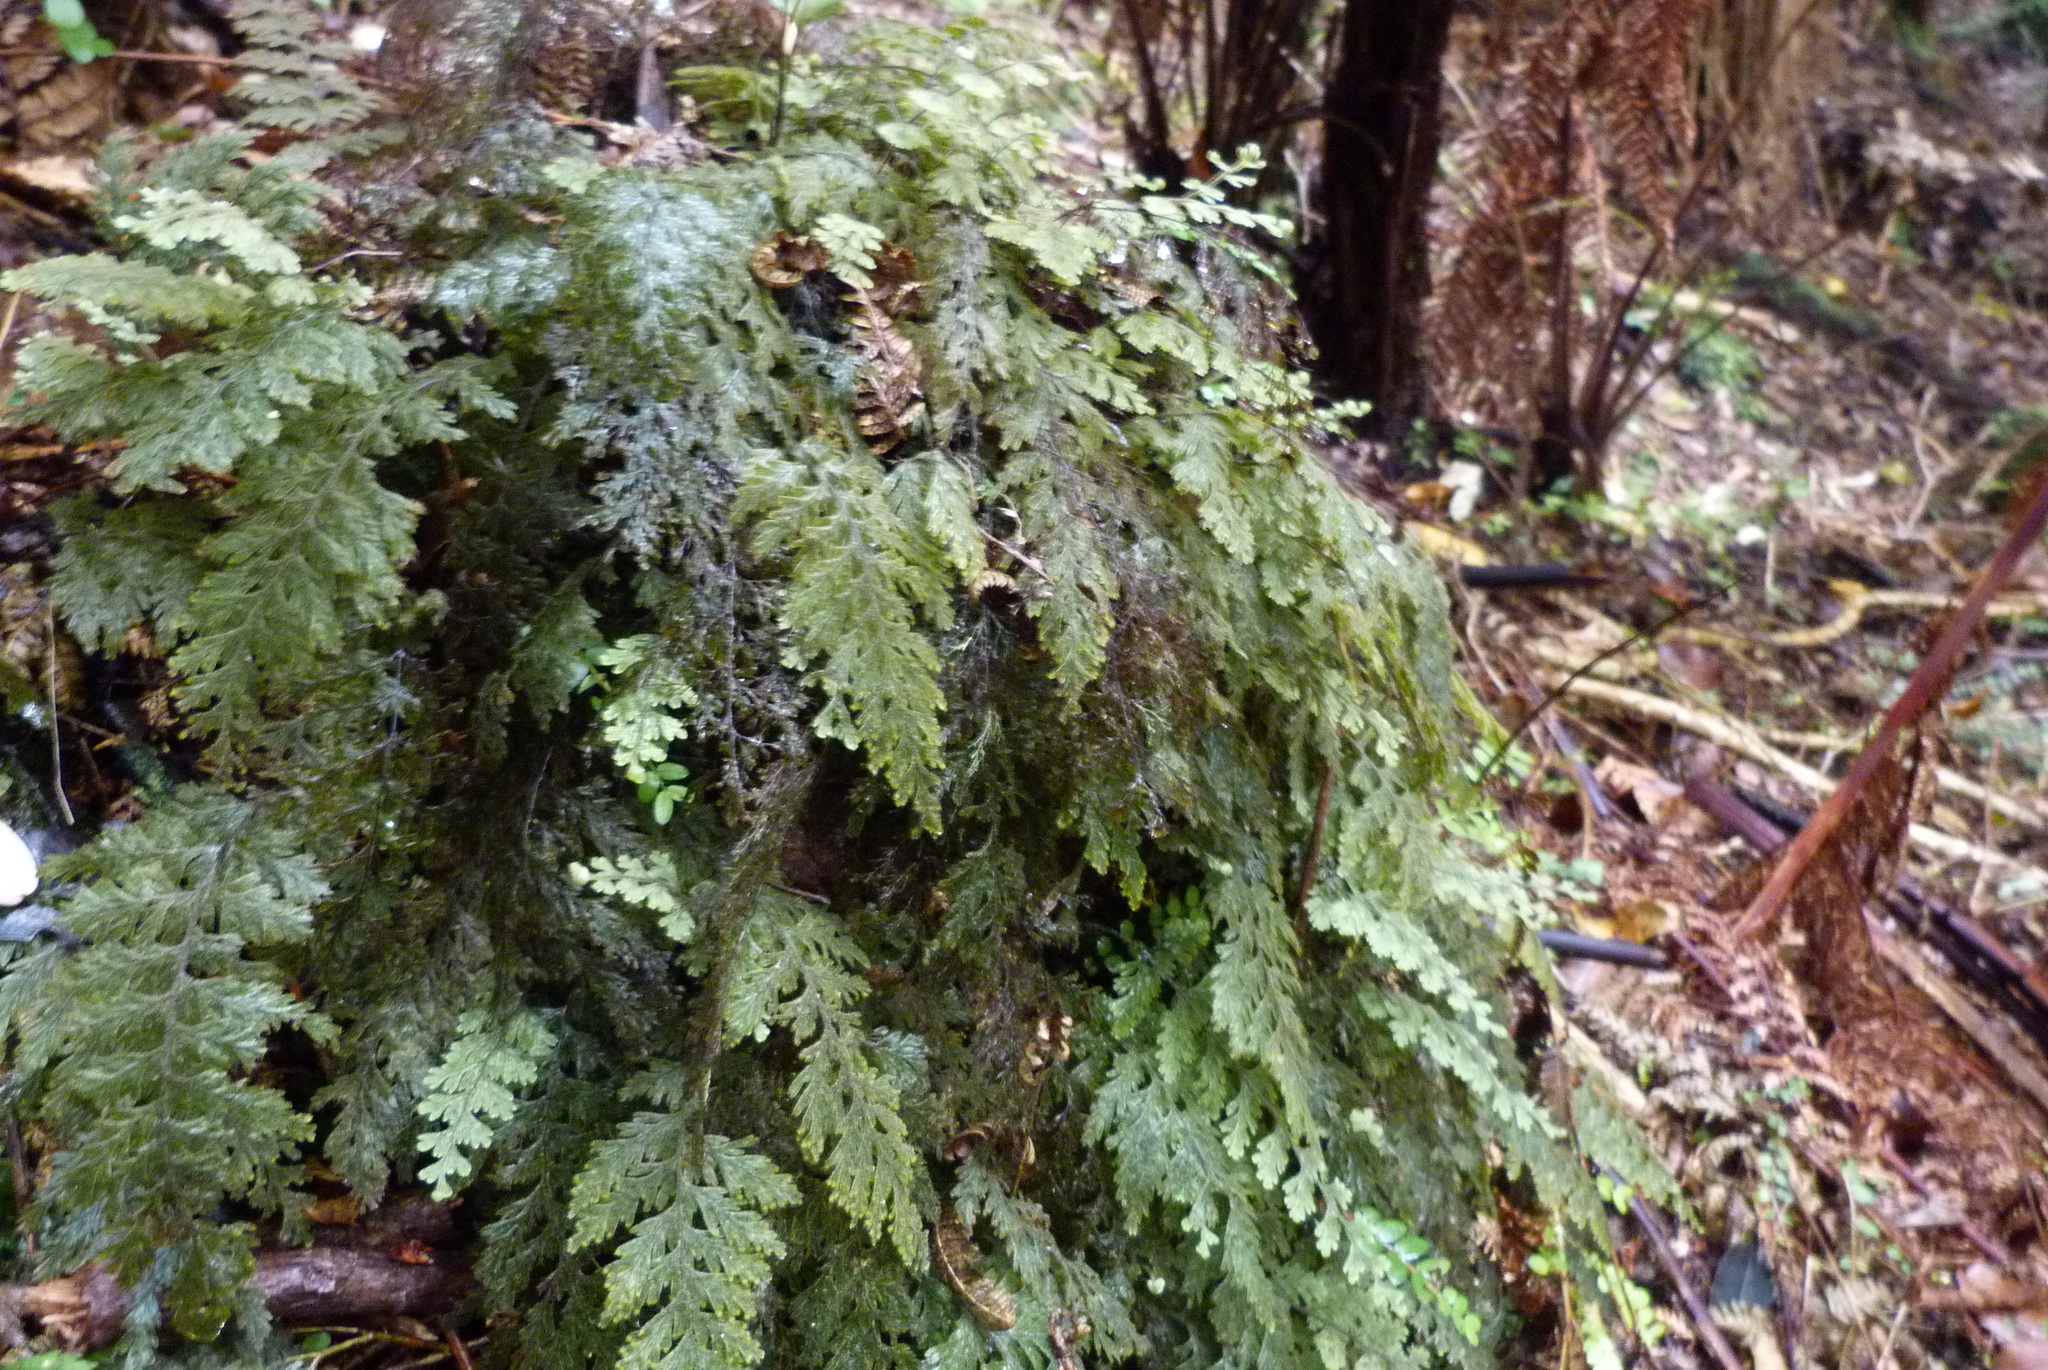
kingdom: Plantae
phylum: Tracheophyta
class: Polypodiopsida
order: Hymenophyllales
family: Hymenophyllaceae
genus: Hymenophyllum
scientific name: Hymenophyllum frankliniae
